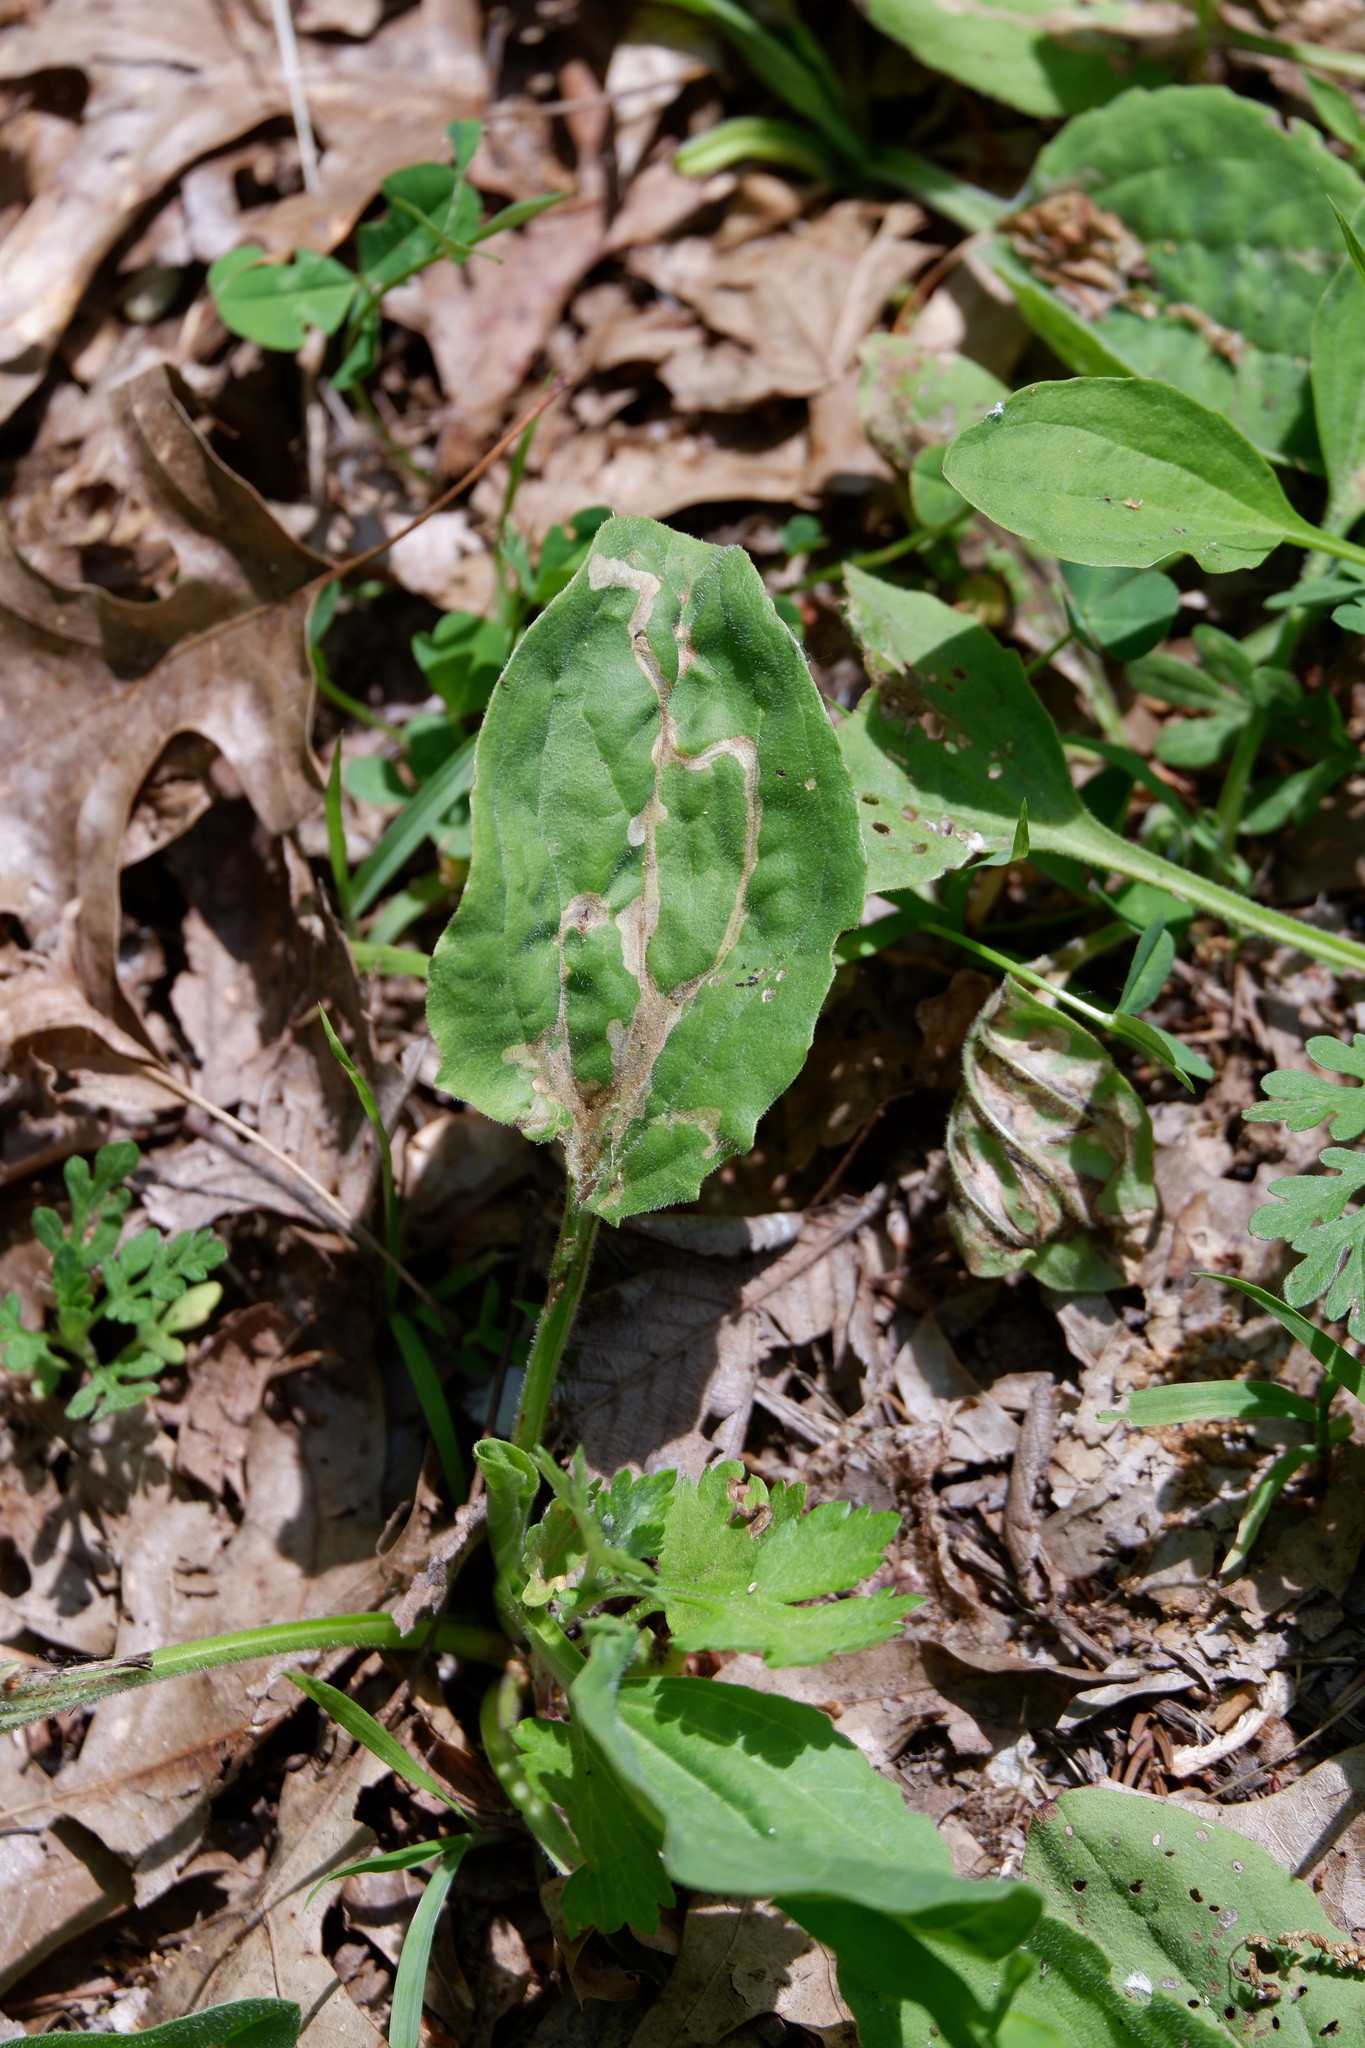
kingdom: Animalia
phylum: Arthropoda
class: Insecta
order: Coleoptera
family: Chrysomelidae
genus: Dibolia
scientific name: Dibolia borealis
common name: Northern plantain flea beetle
